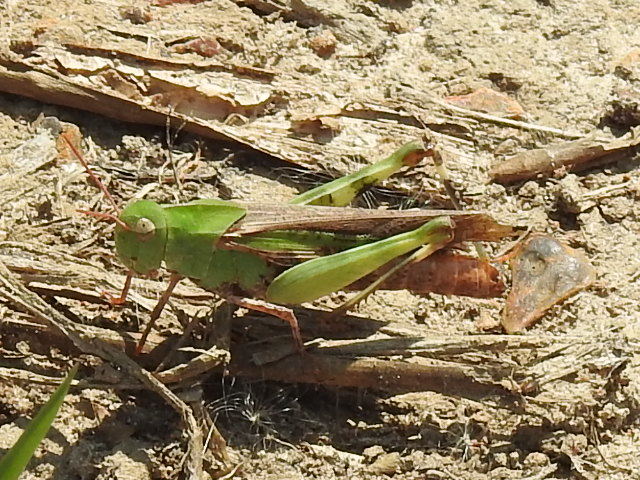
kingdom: Animalia
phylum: Arthropoda
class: Insecta
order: Orthoptera
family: Acrididae
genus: Chortophaga
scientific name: Chortophaga viridifasciata
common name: Green-striped grasshopper
